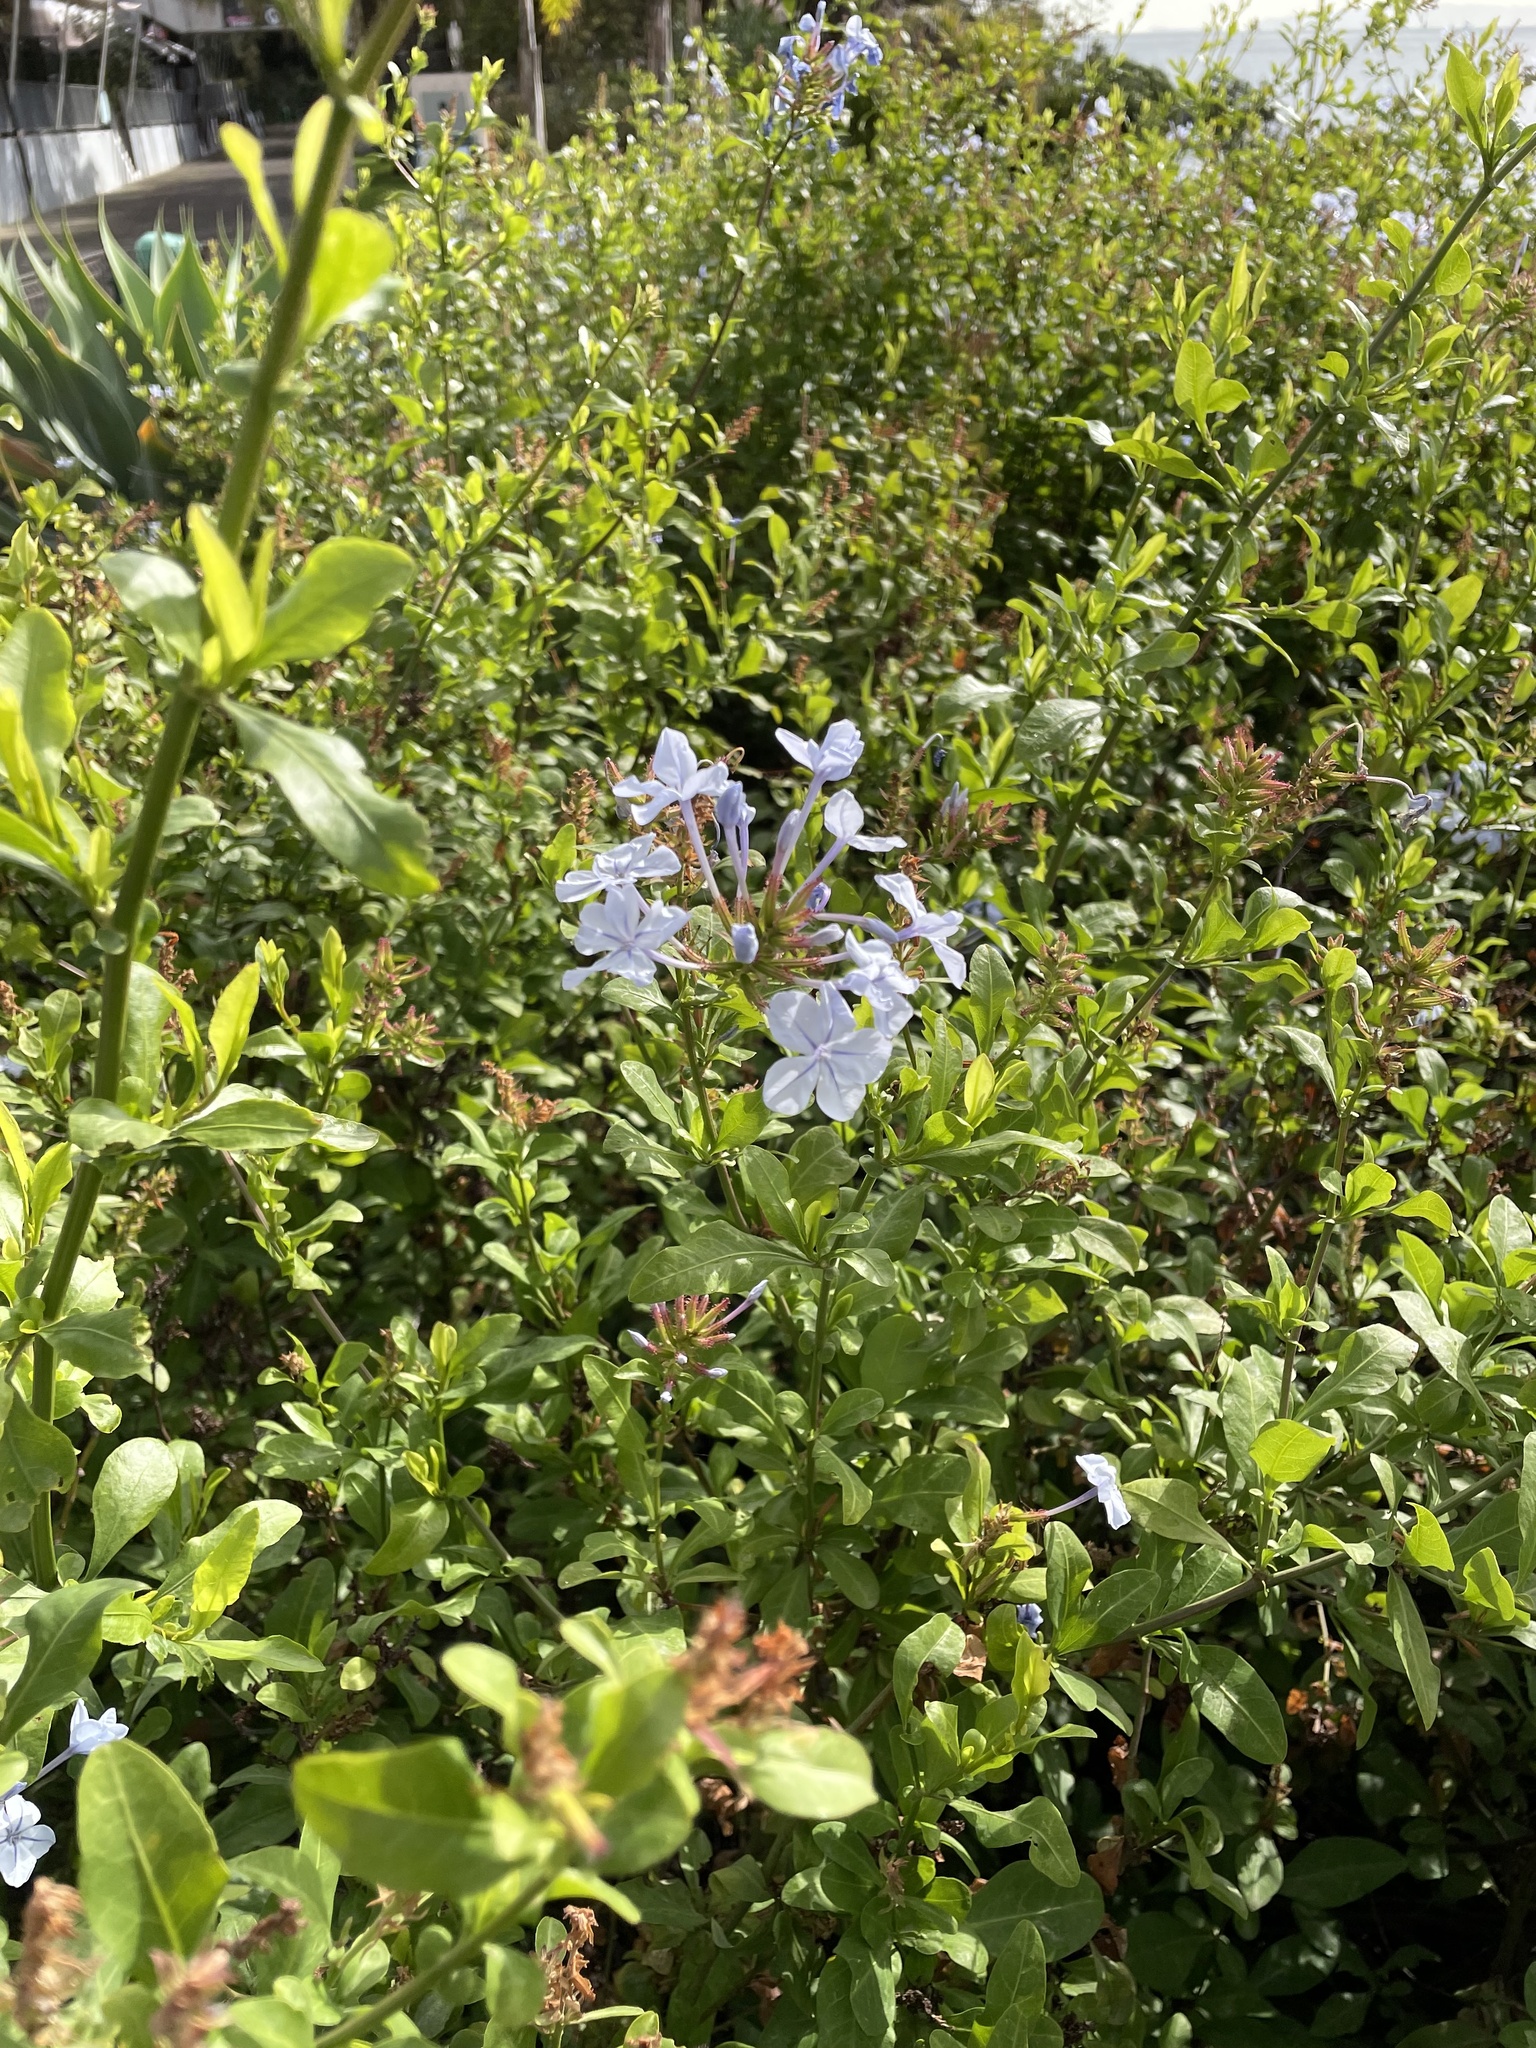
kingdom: Plantae
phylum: Tracheophyta
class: Magnoliopsida
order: Caryophyllales
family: Plumbaginaceae
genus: Plumbago
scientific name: Plumbago auriculata
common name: Cape leadwort
